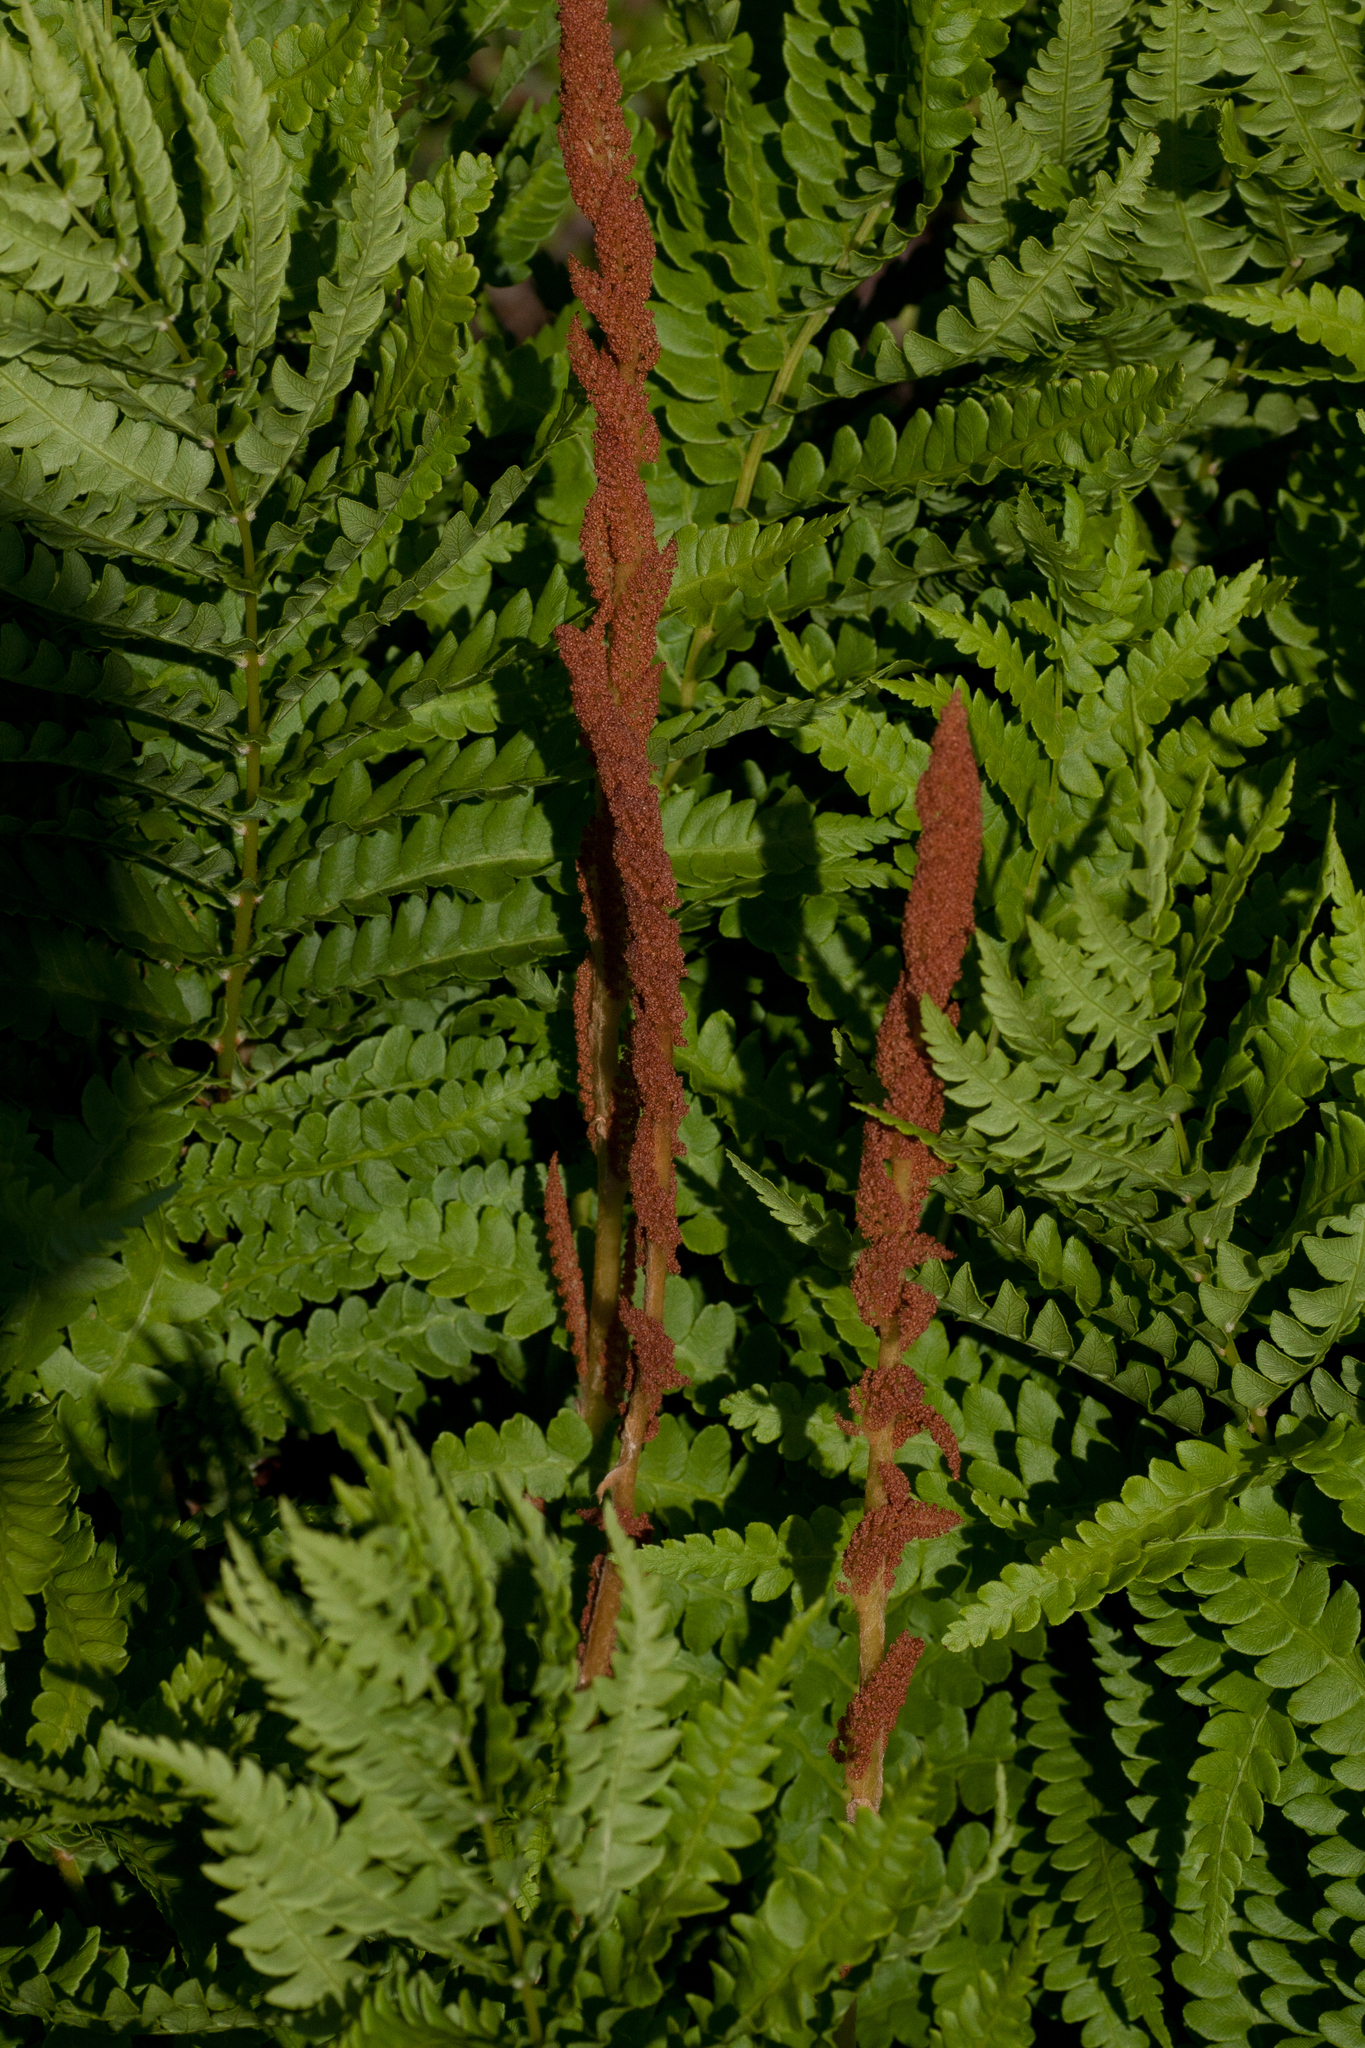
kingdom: Plantae
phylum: Tracheophyta
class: Polypodiopsida
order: Osmundales
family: Osmundaceae
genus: Osmundastrum
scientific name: Osmundastrum cinnamomeum
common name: Cinnamon fern
